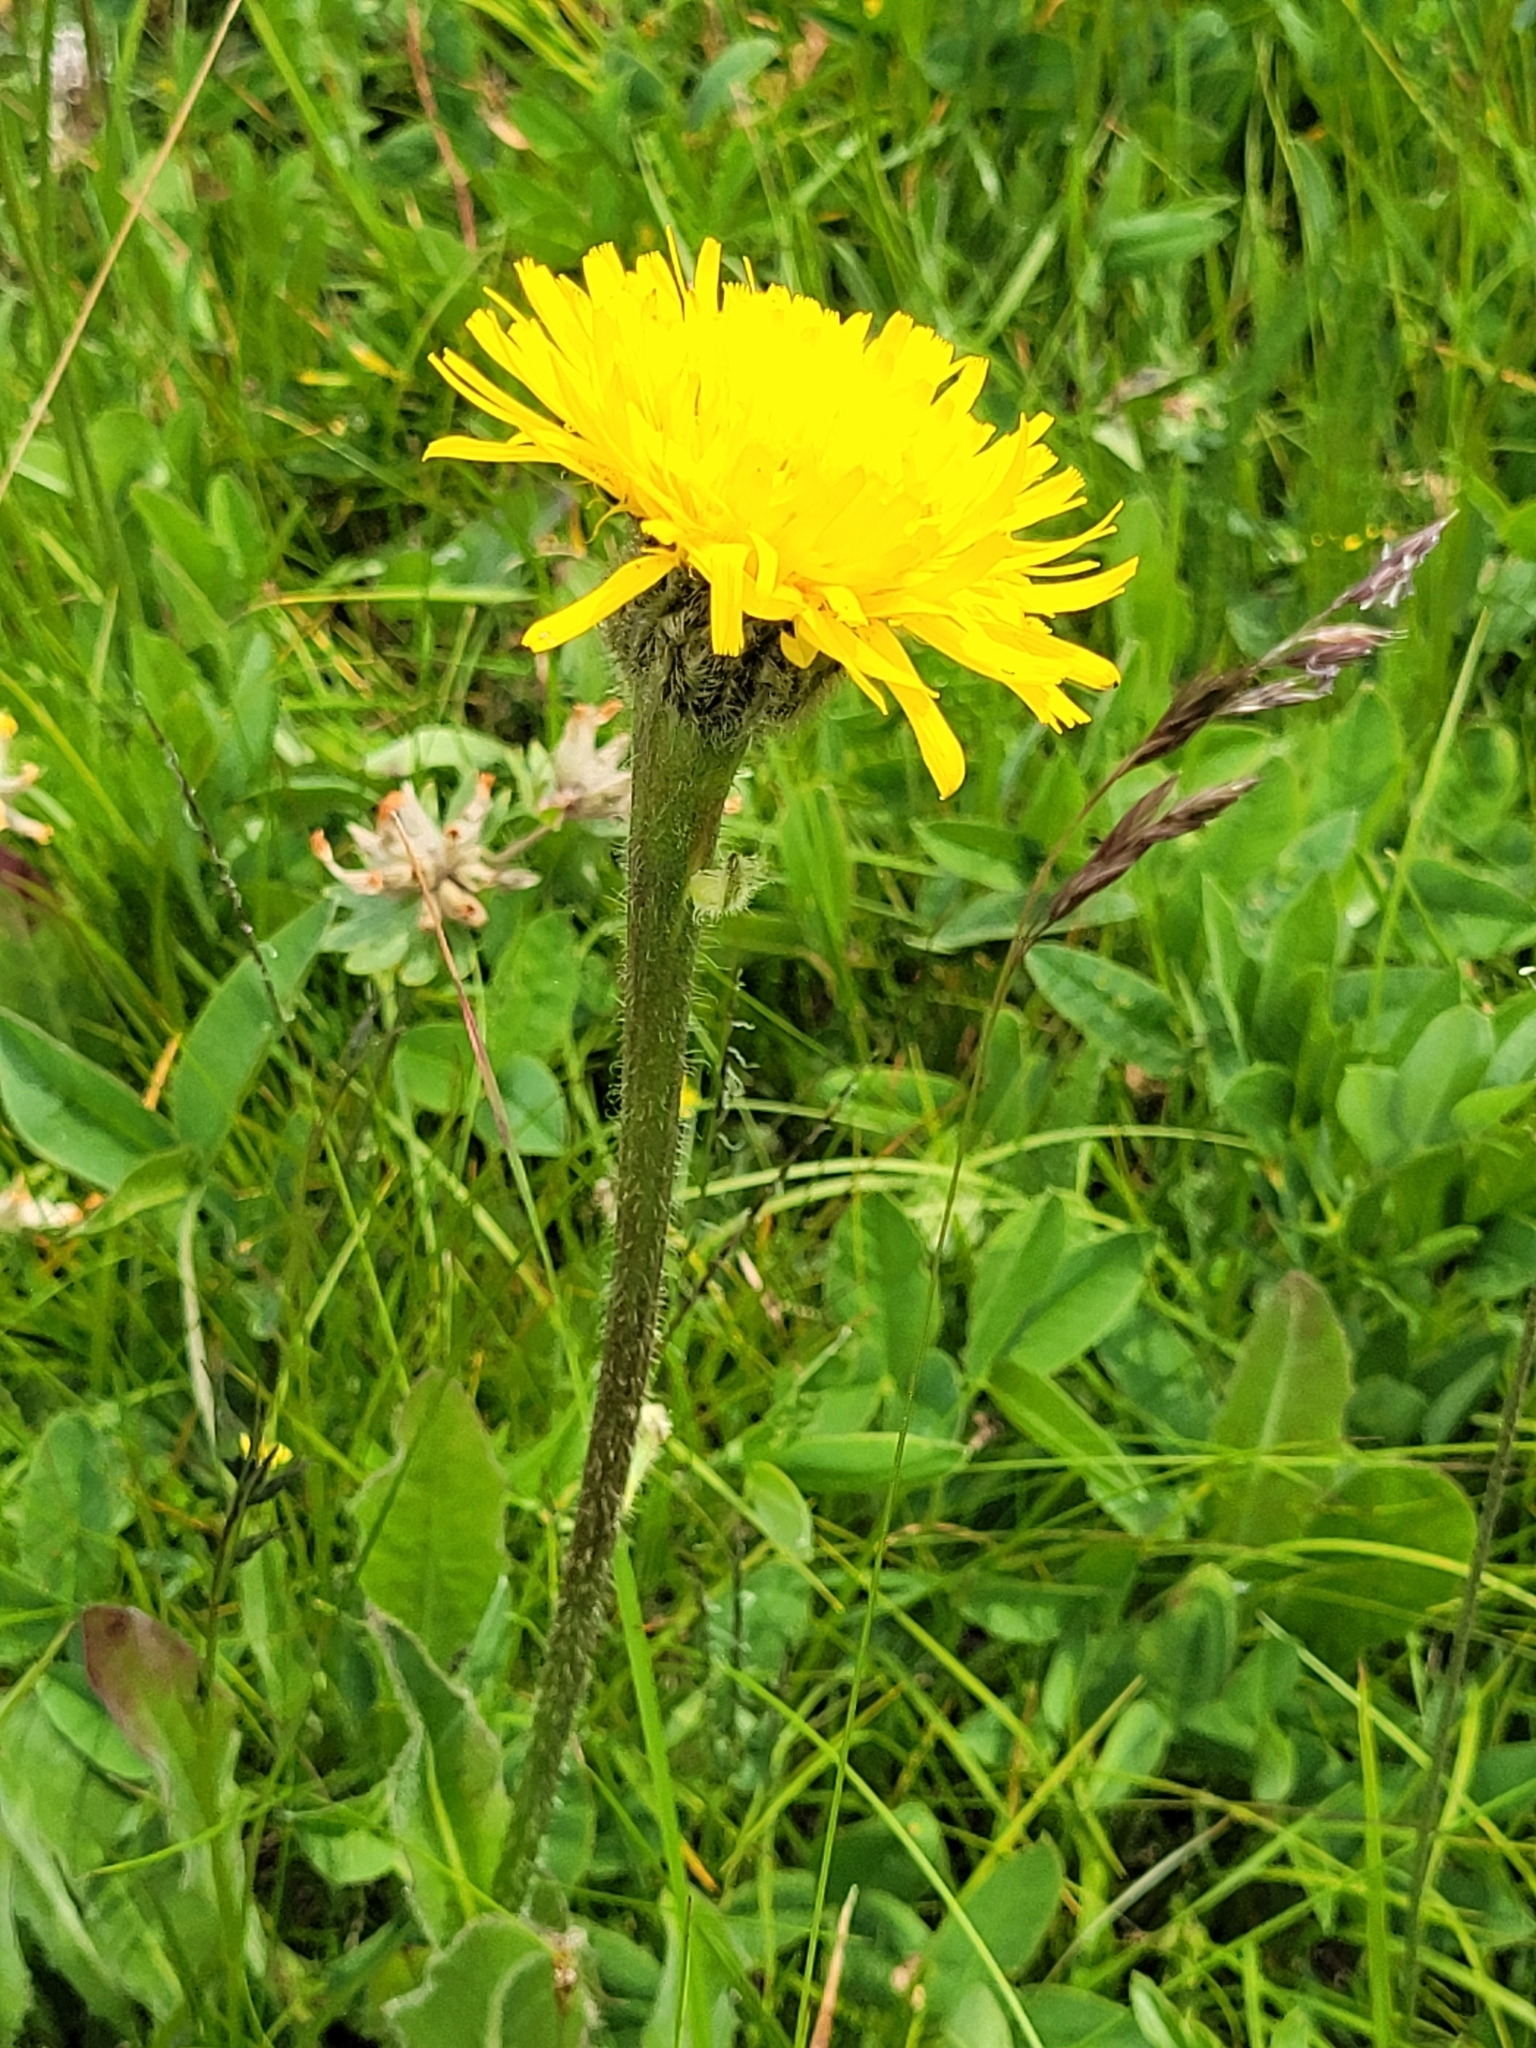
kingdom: Plantae
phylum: Tracheophyta
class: Magnoliopsida
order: Asterales
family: Asteraceae
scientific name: Asteraceae
